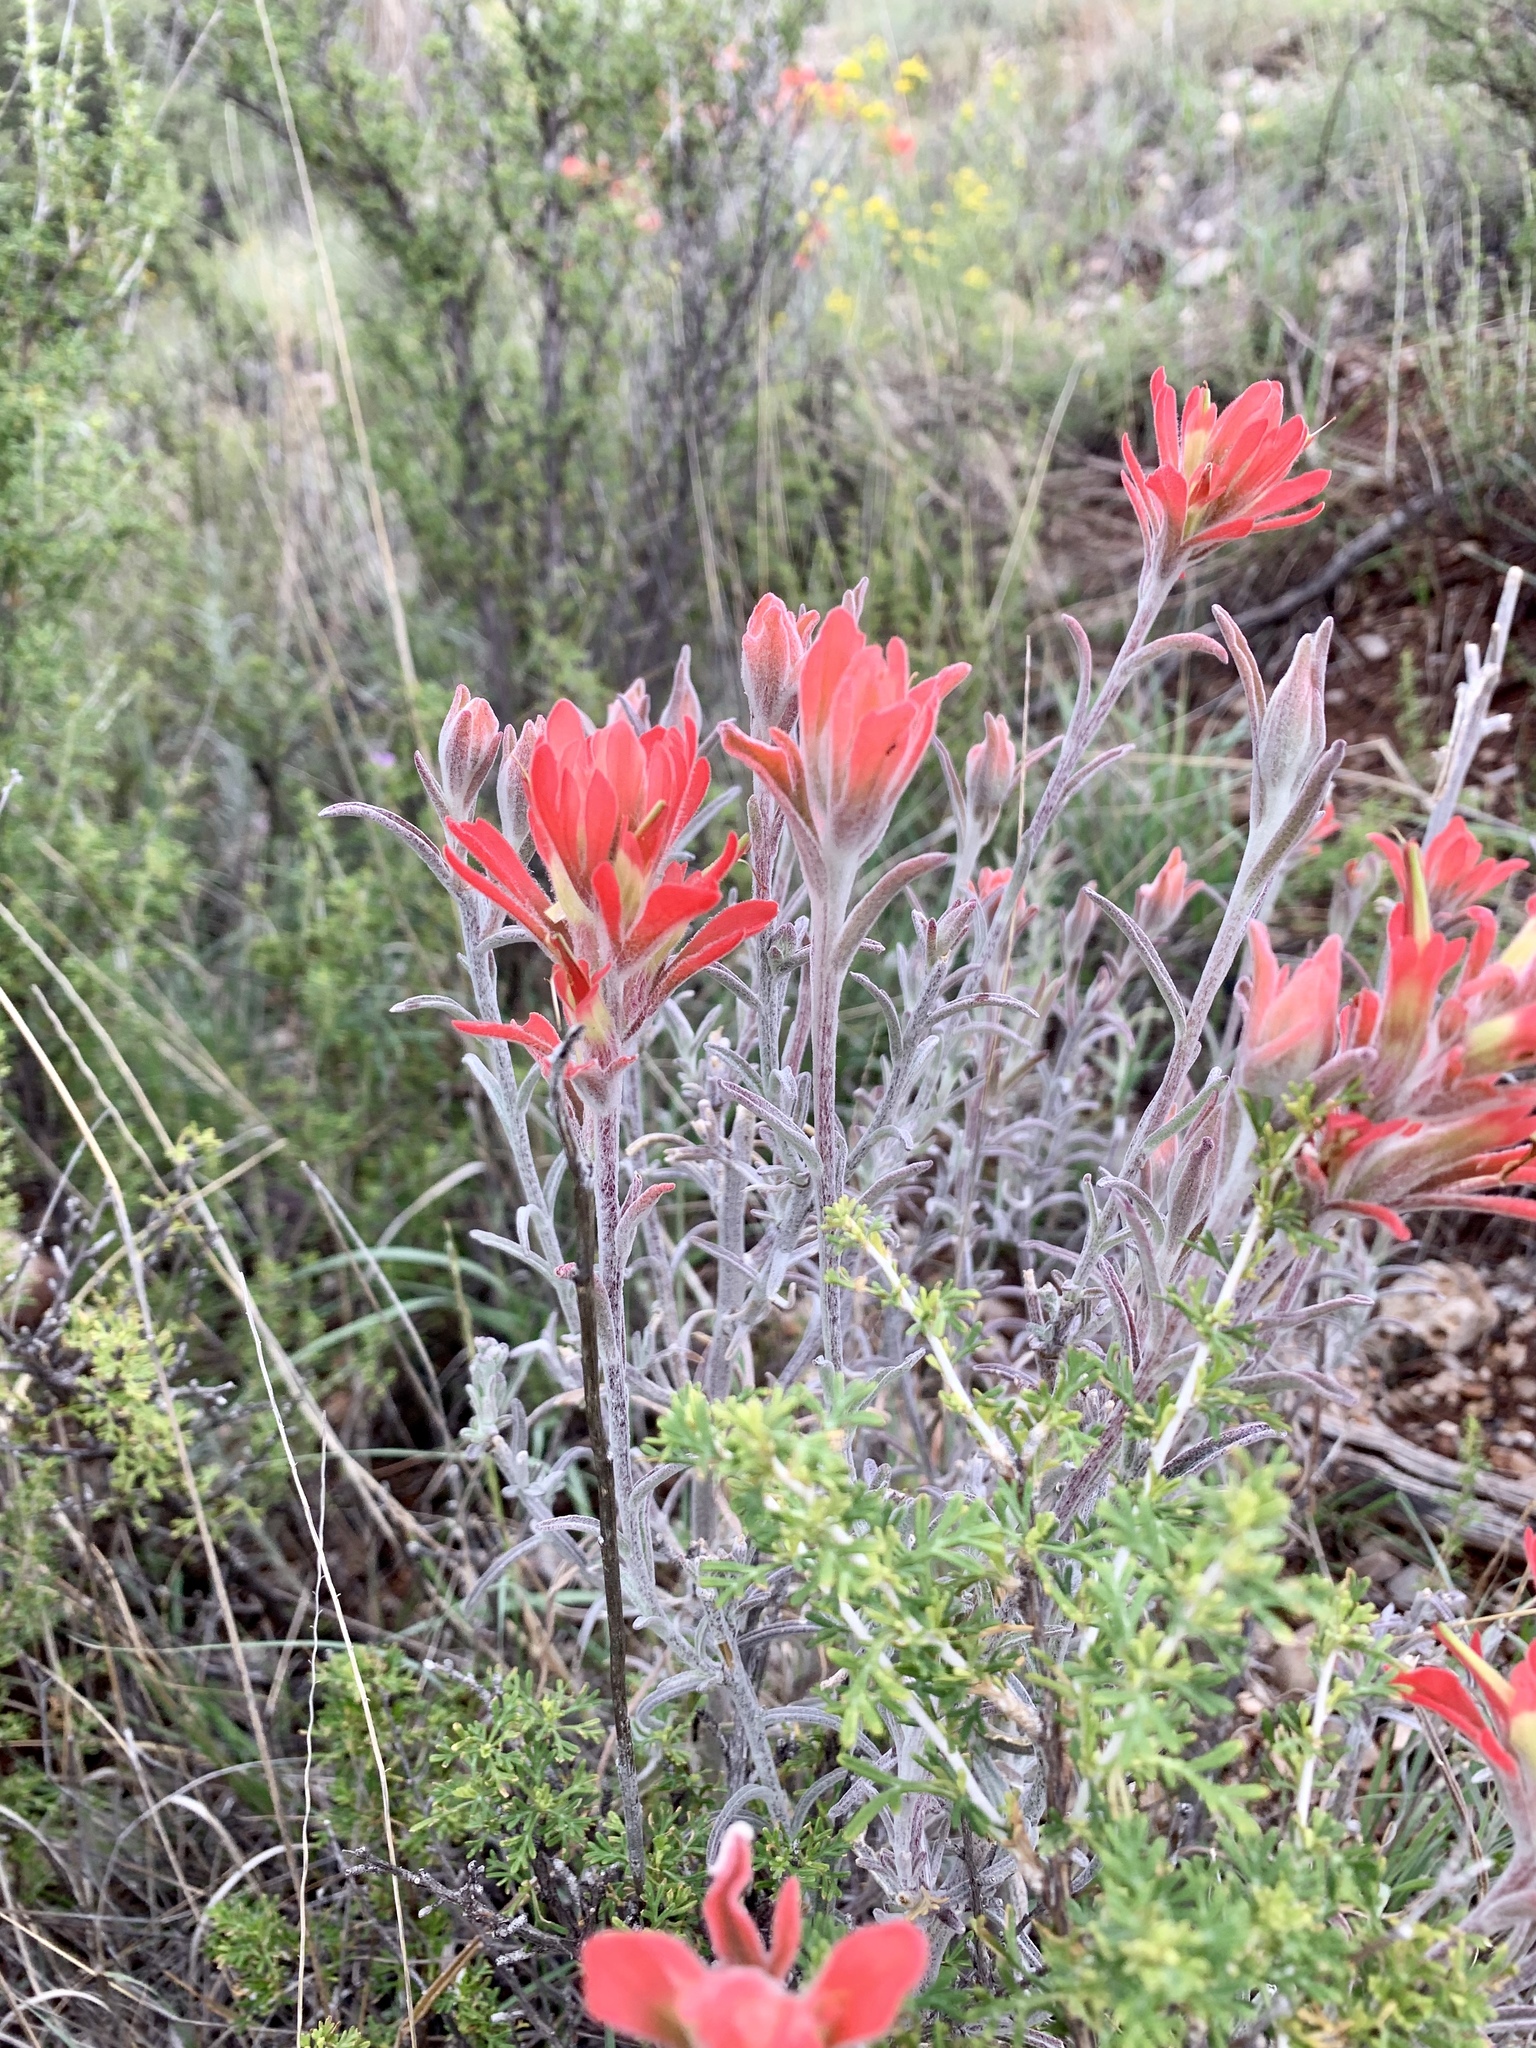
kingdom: Plantae
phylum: Tracheophyta
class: Magnoliopsida
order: Lamiales
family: Orobanchaceae
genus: Castilleja
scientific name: Castilleja lanata
